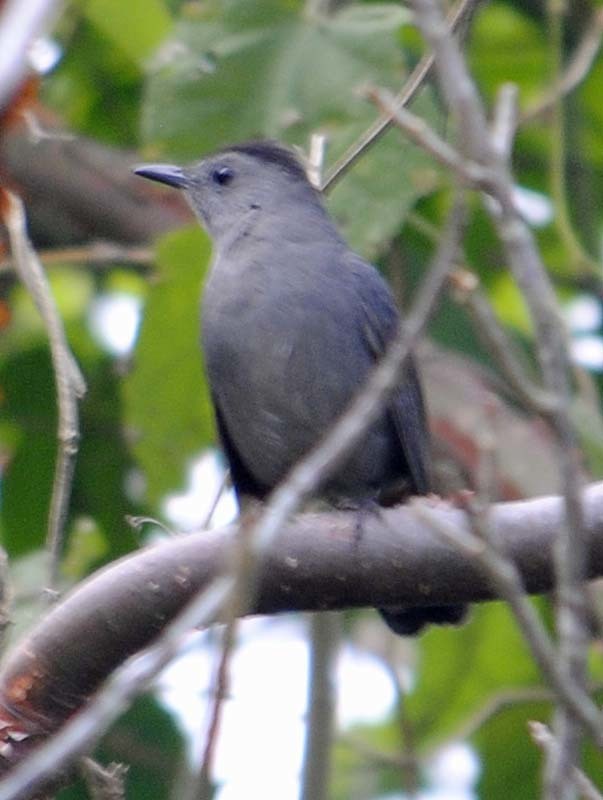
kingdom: Animalia
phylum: Chordata
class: Aves
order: Passeriformes
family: Mimidae
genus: Dumetella
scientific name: Dumetella carolinensis
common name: Gray catbird
